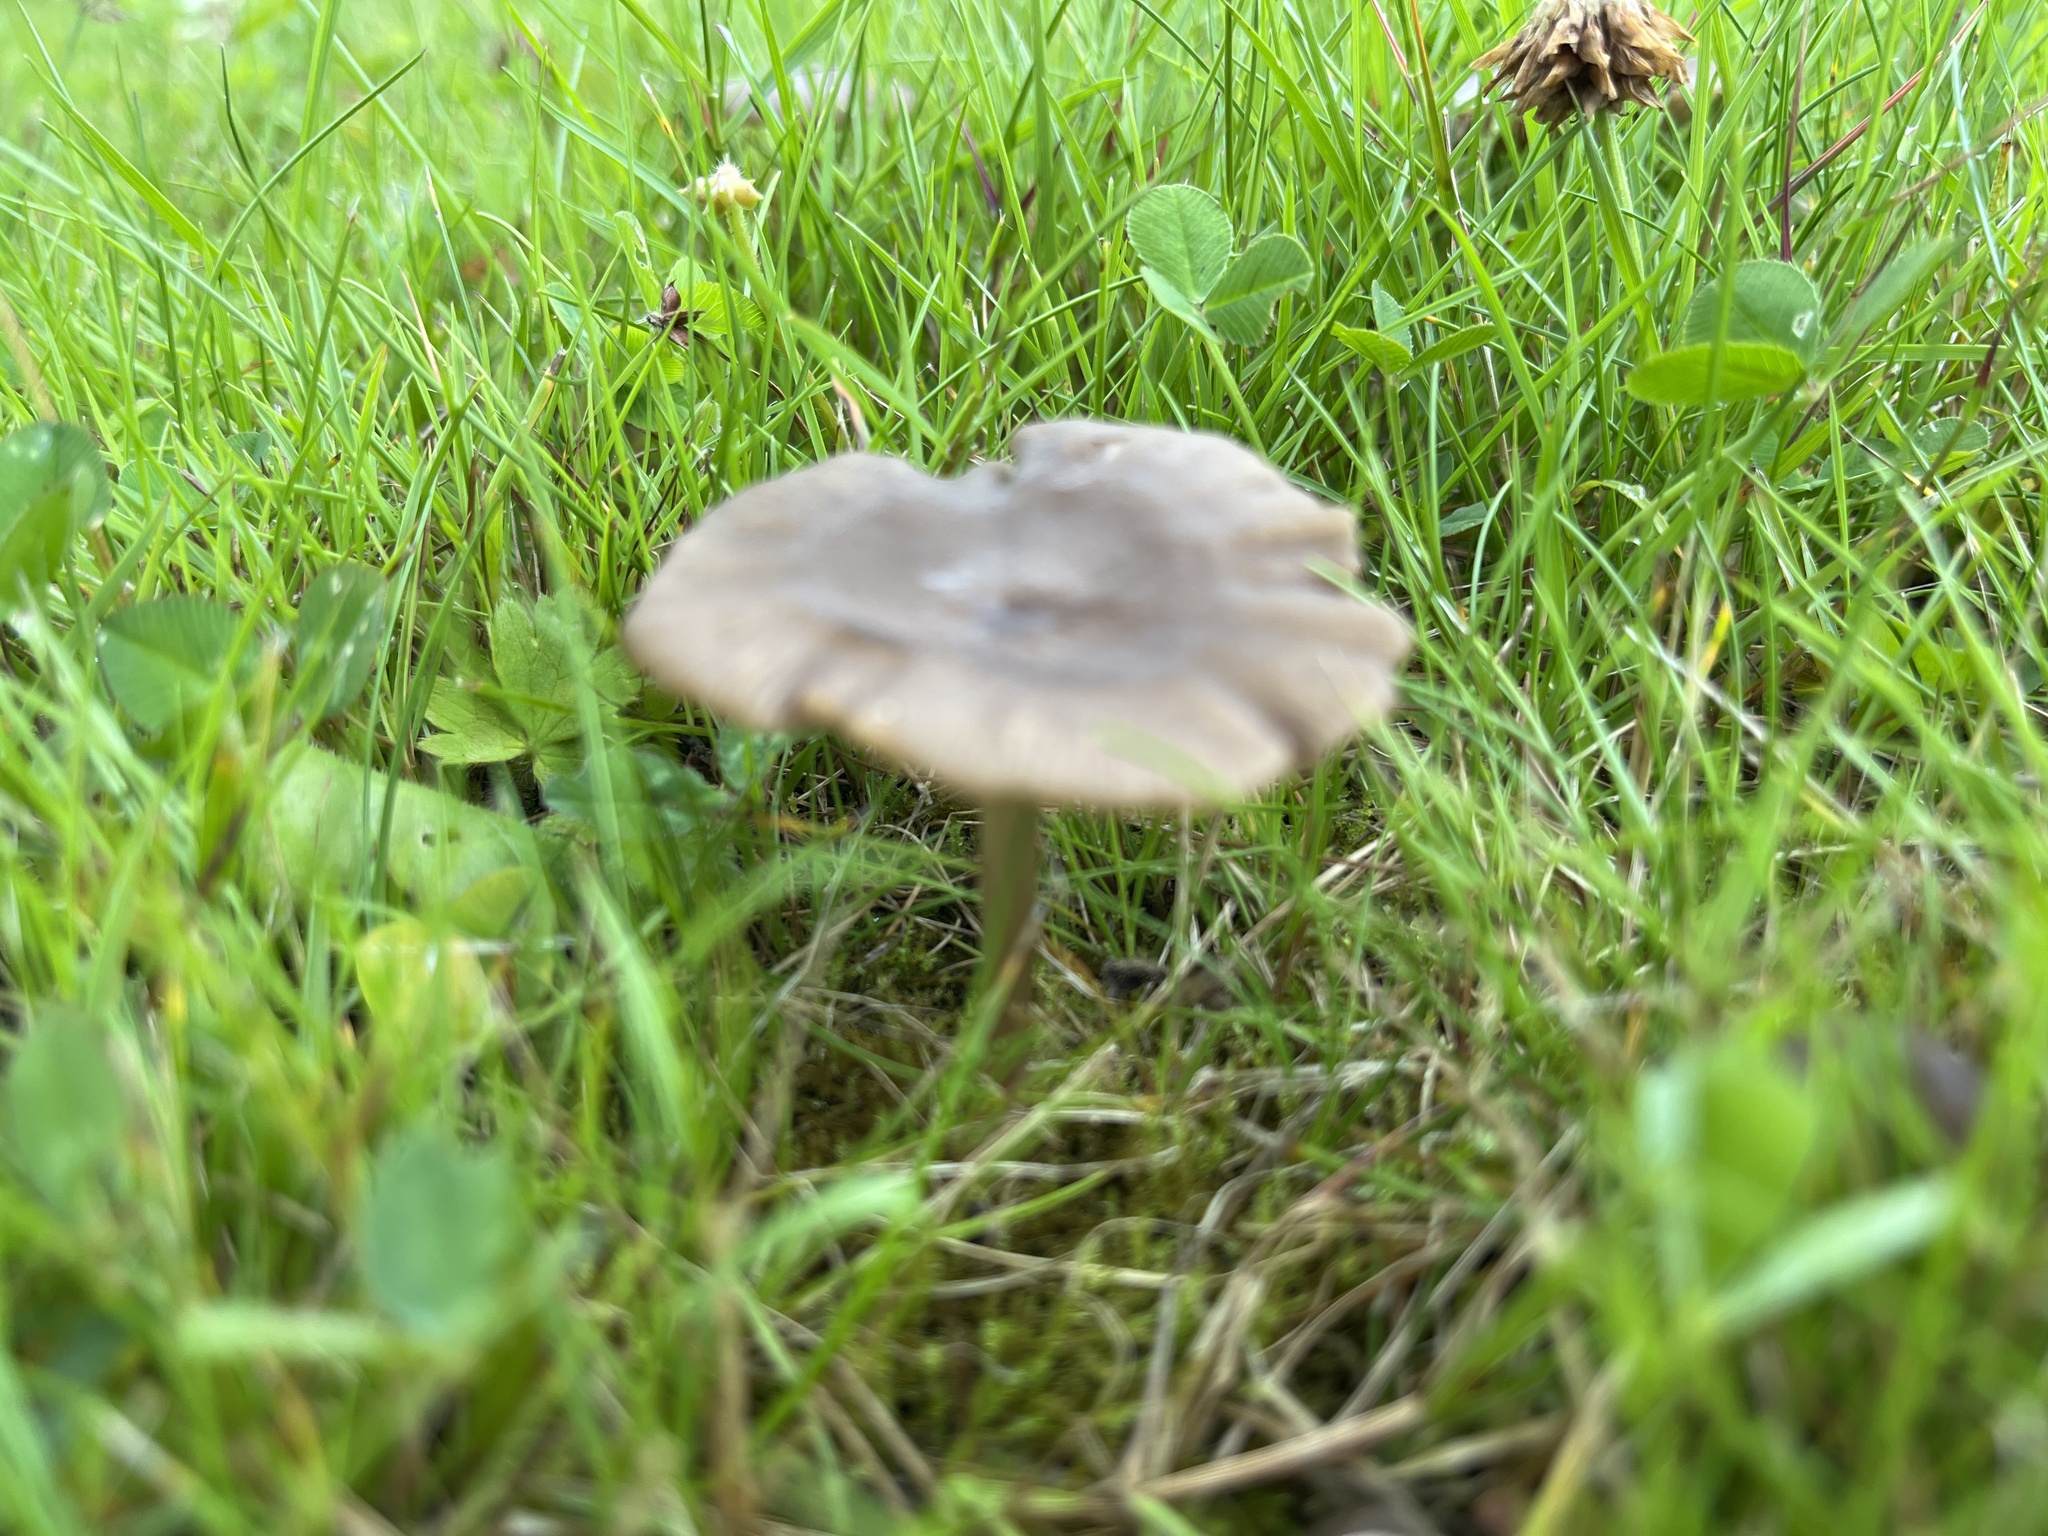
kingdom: Fungi
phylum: Basidiomycota
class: Agaricomycetes
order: Agaricales
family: Entolomataceae
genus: Entoloma
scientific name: Entoloma sericeum
